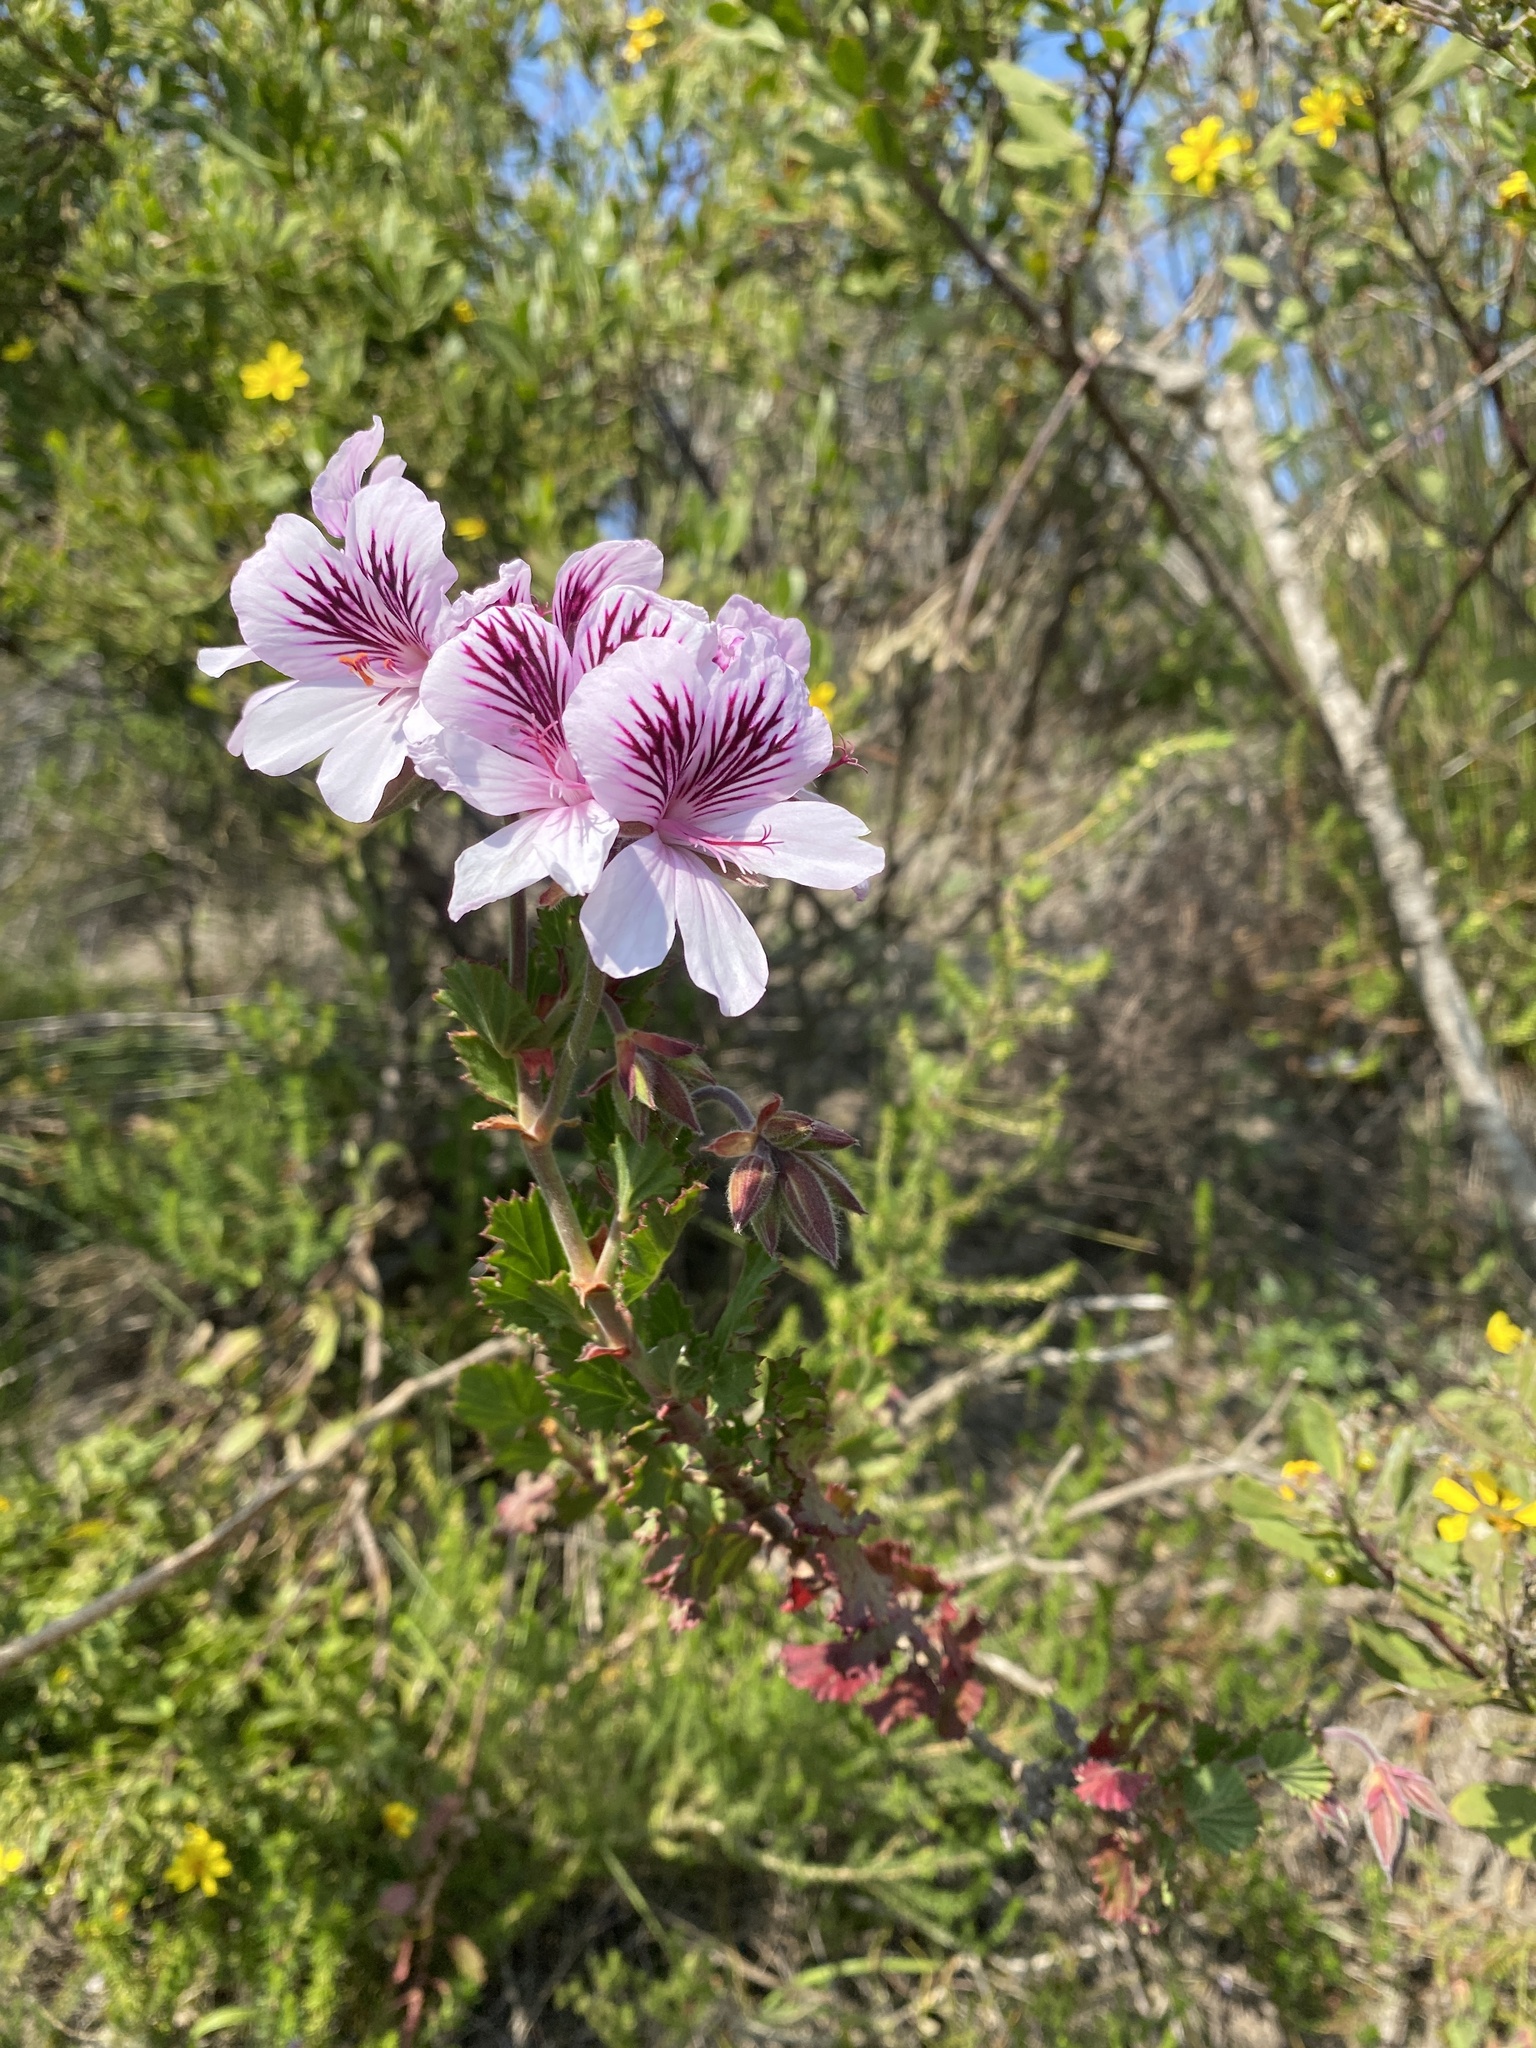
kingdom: Plantae
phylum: Tracheophyta
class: Magnoliopsida
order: Geraniales
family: Geraniaceae
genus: Pelargonium
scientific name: Pelargonium betulinum
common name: Birch-leaf pelargonium
